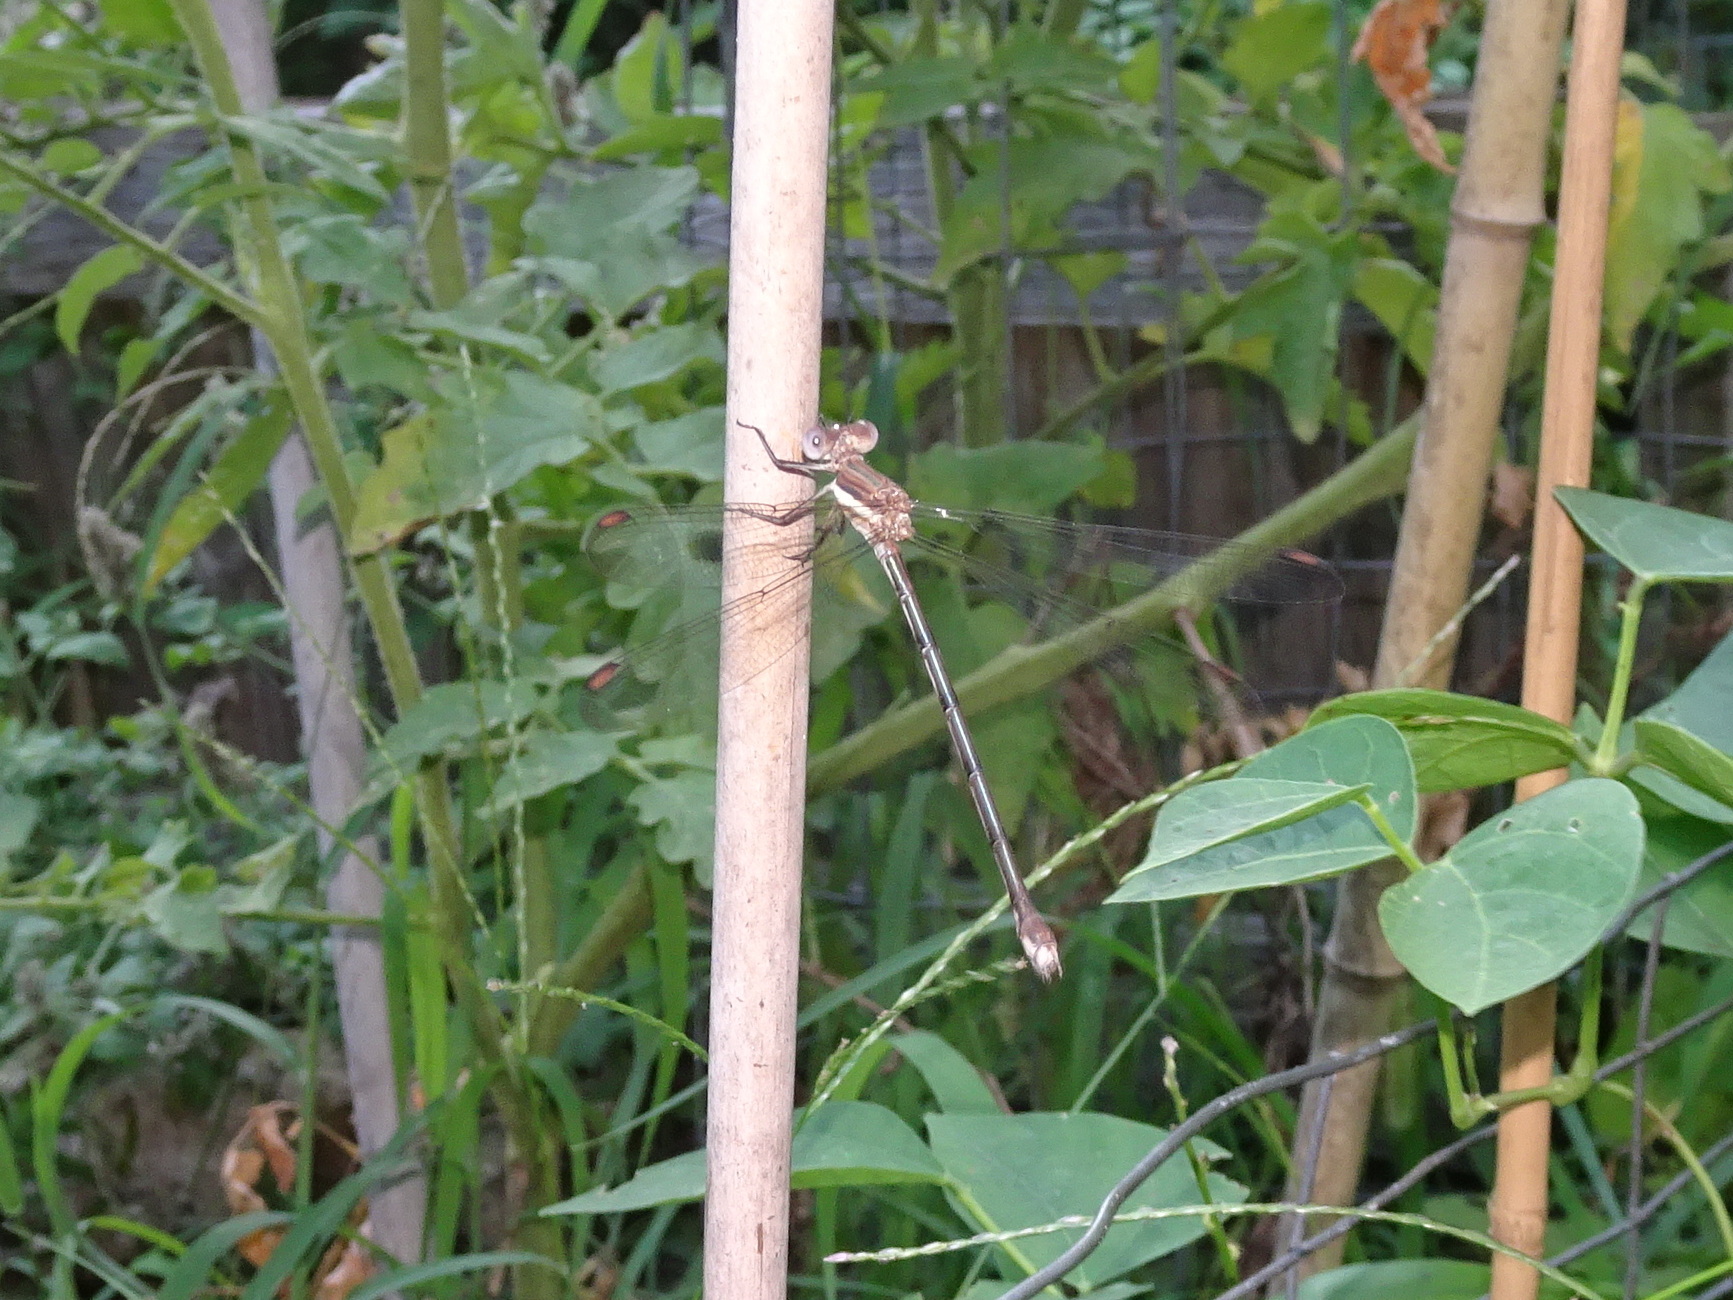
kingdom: Animalia
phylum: Arthropoda
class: Insecta
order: Odonata
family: Lestidae
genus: Archilestes
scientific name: Archilestes grandis
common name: Great spreadwing
